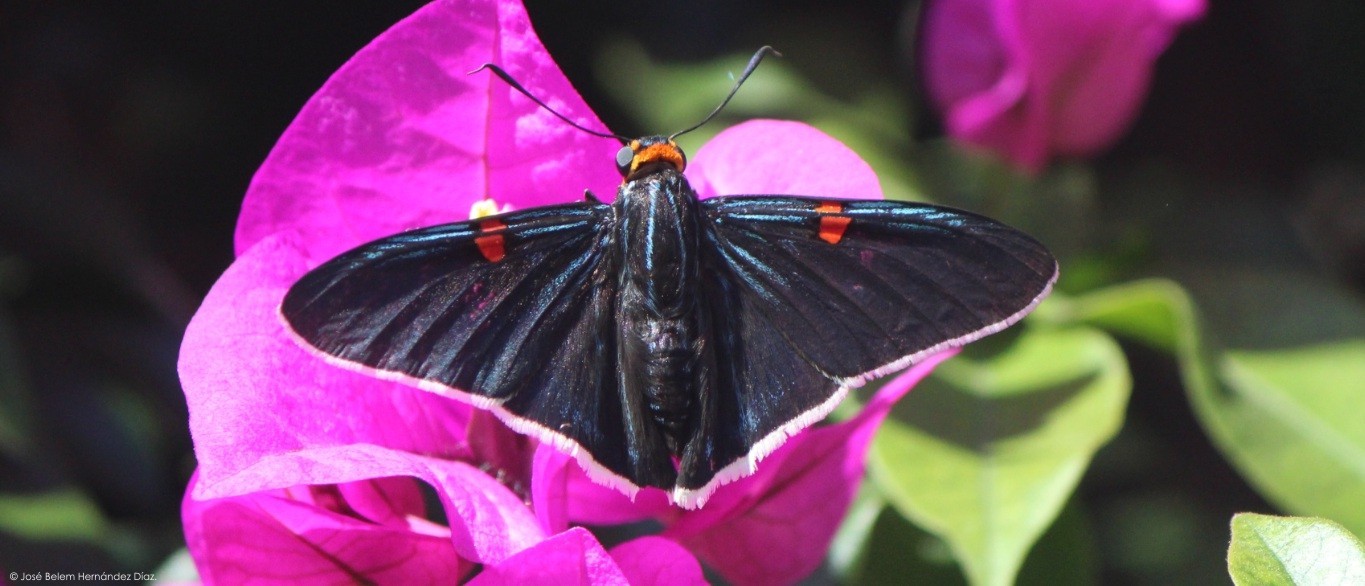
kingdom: Animalia
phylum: Arthropoda
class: Insecta
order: Lepidoptera
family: Hesperiidae
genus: Phocides
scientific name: Phocides lilea
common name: Guava skipper
